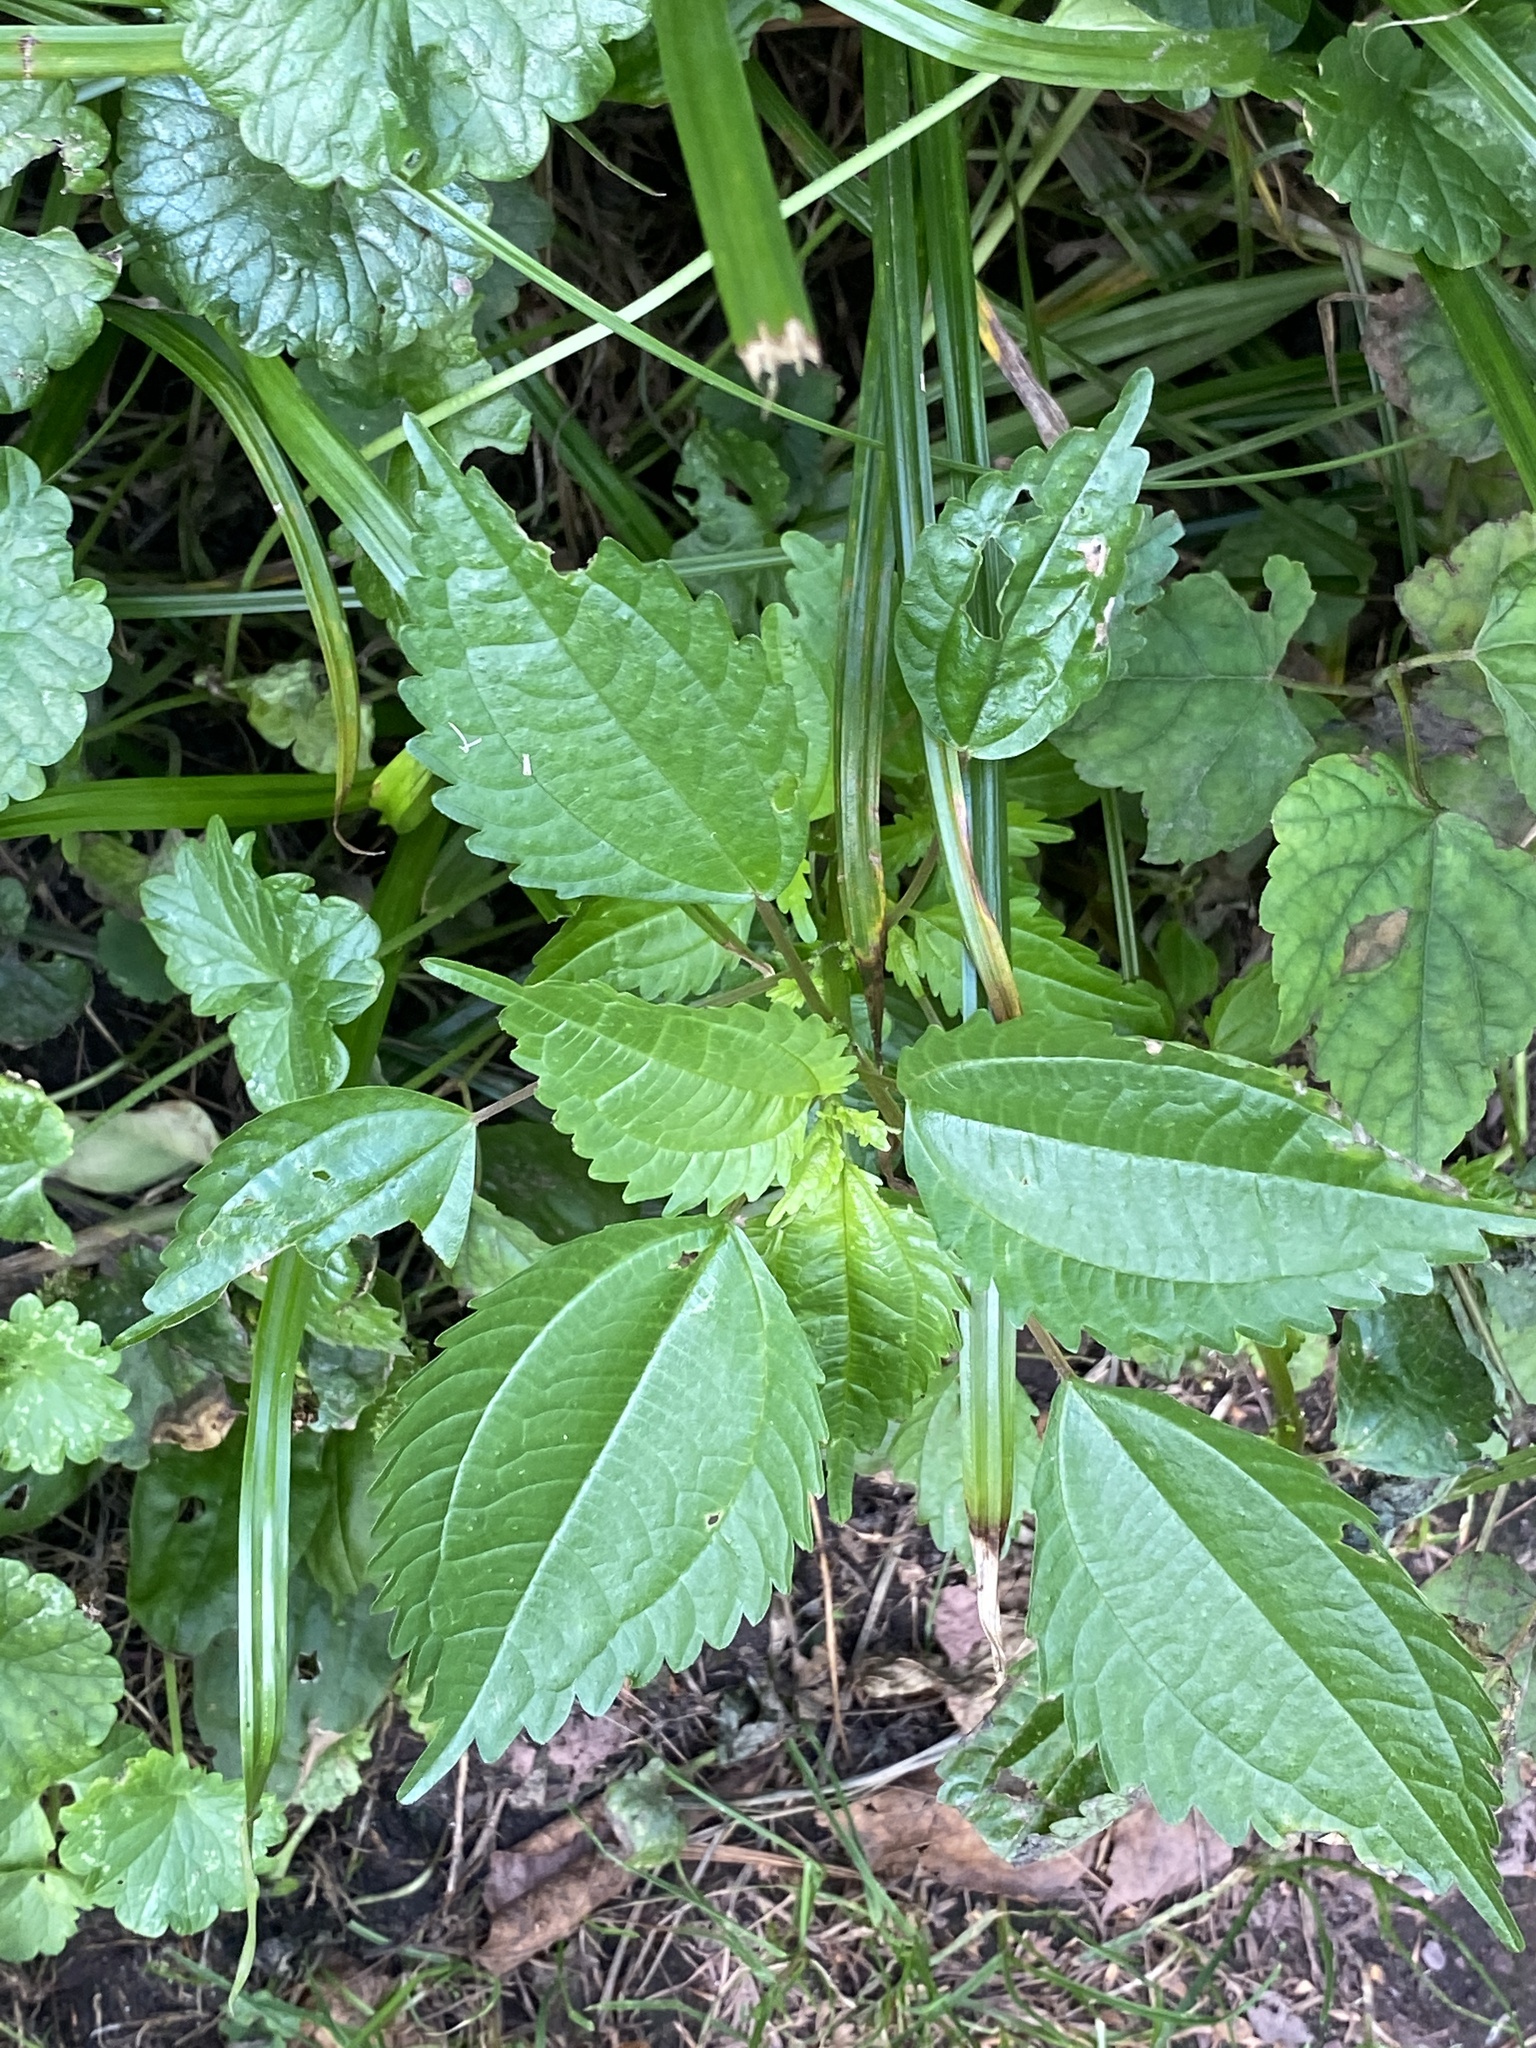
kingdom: Plantae
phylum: Tracheophyta
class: Magnoliopsida
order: Rosales
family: Urticaceae
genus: Pilea
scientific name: Pilea pumila
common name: Clearweed
